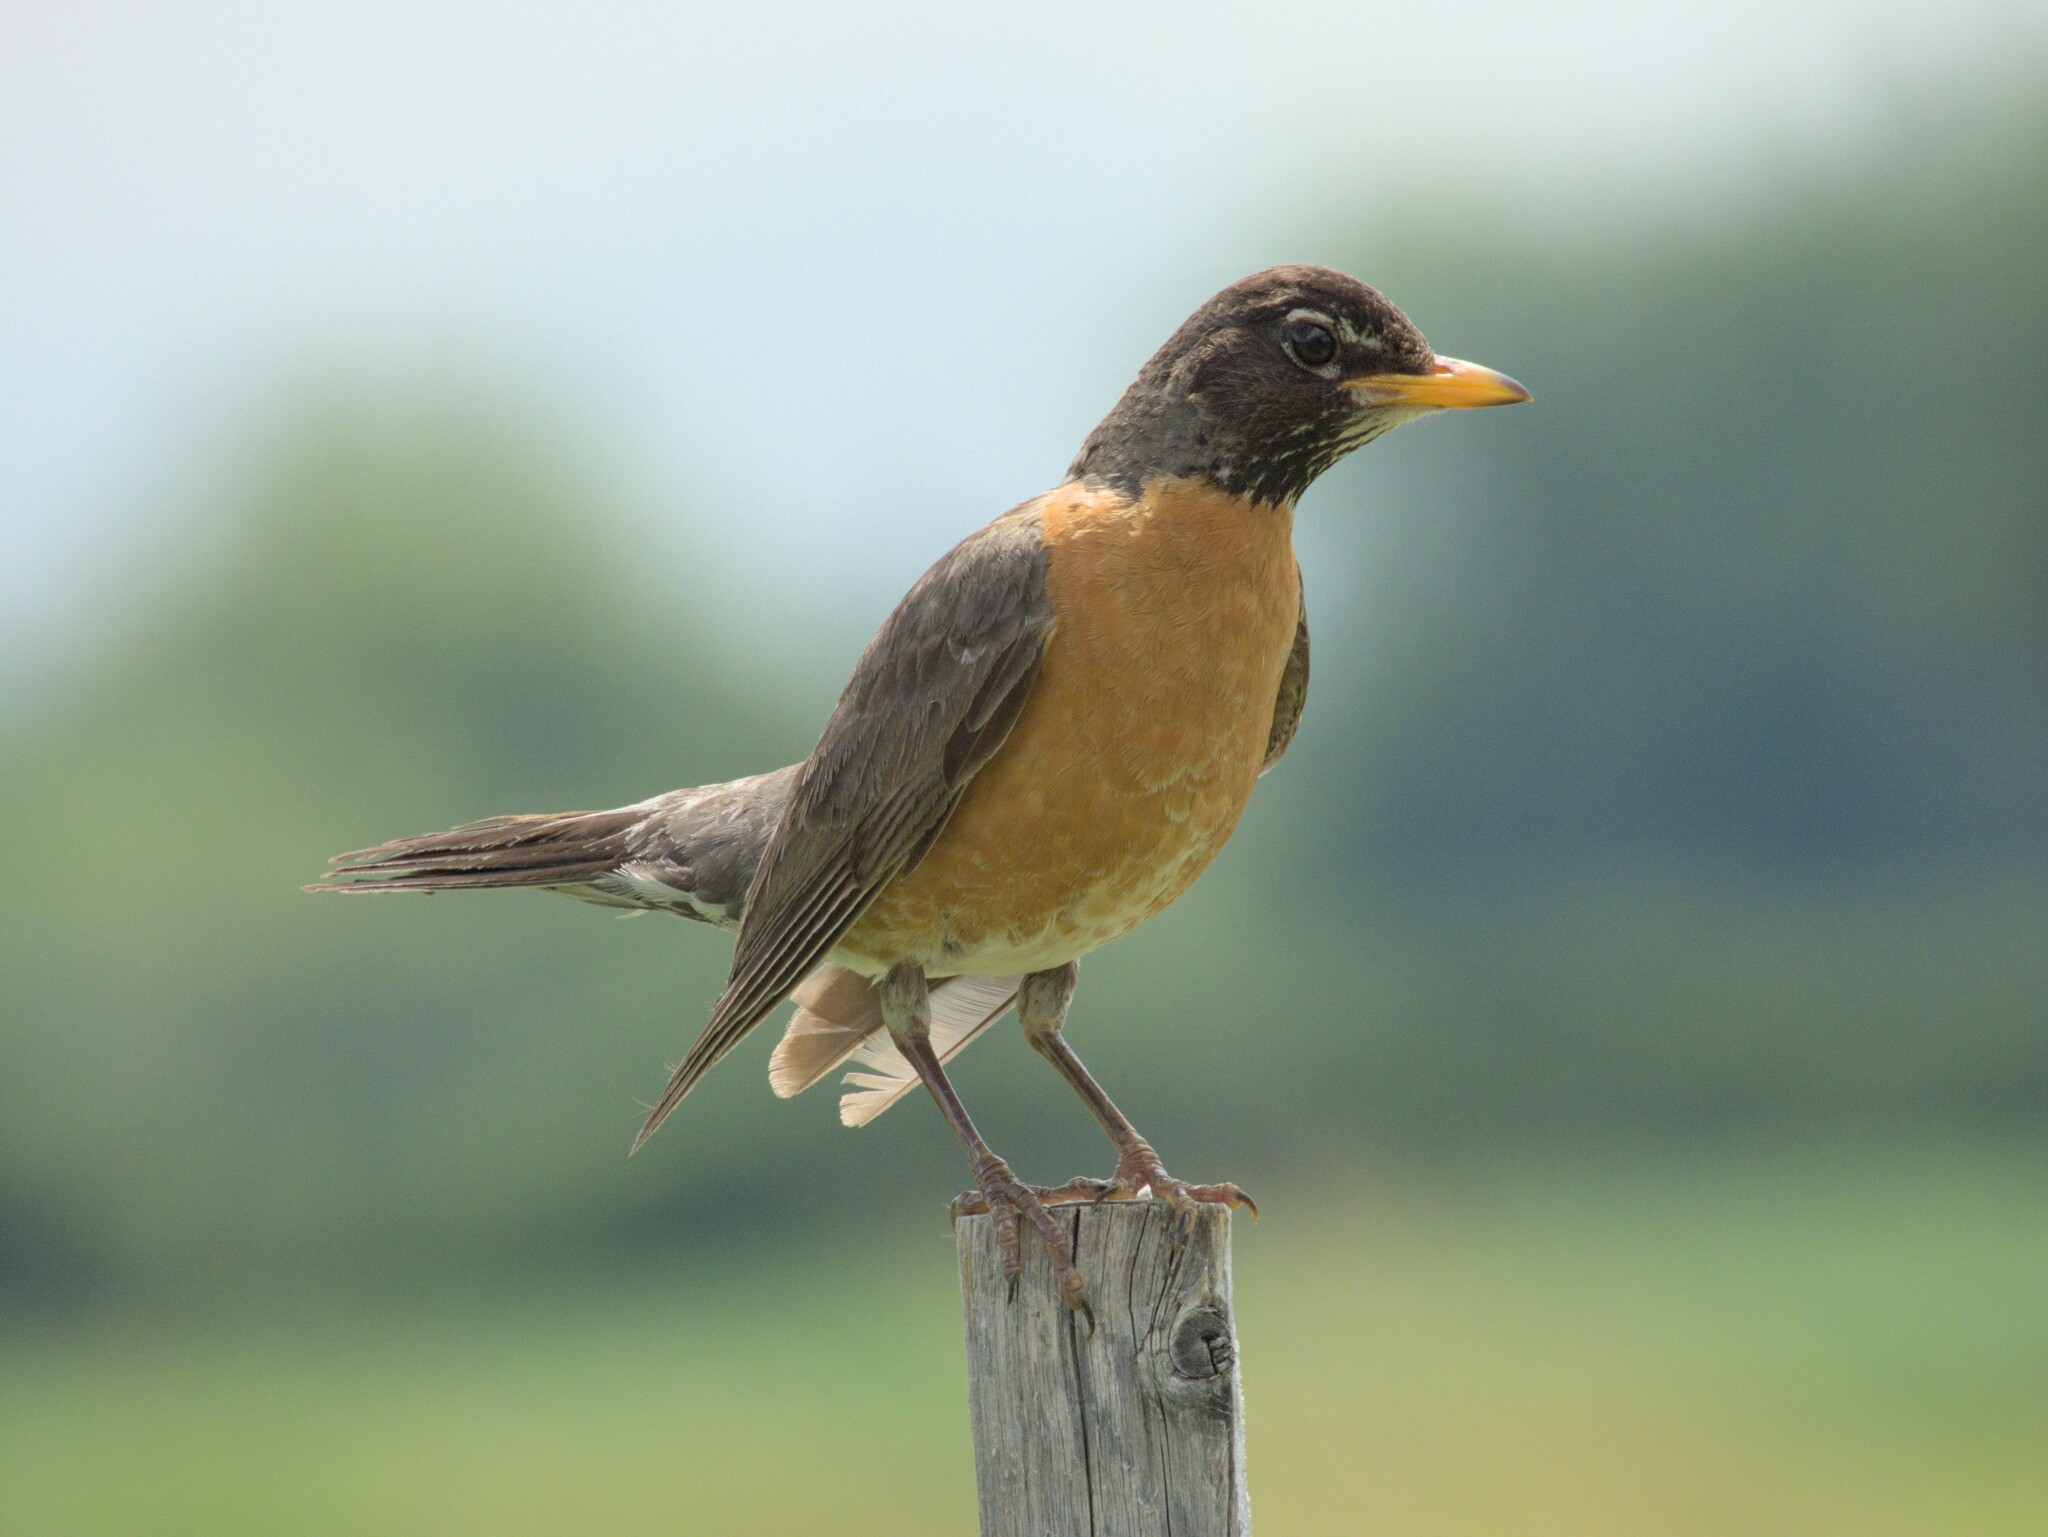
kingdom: Animalia
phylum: Chordata
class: Aves
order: Passeriformes
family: Turdidae
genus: Turdus
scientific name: Turdus migratorius
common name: American robin
